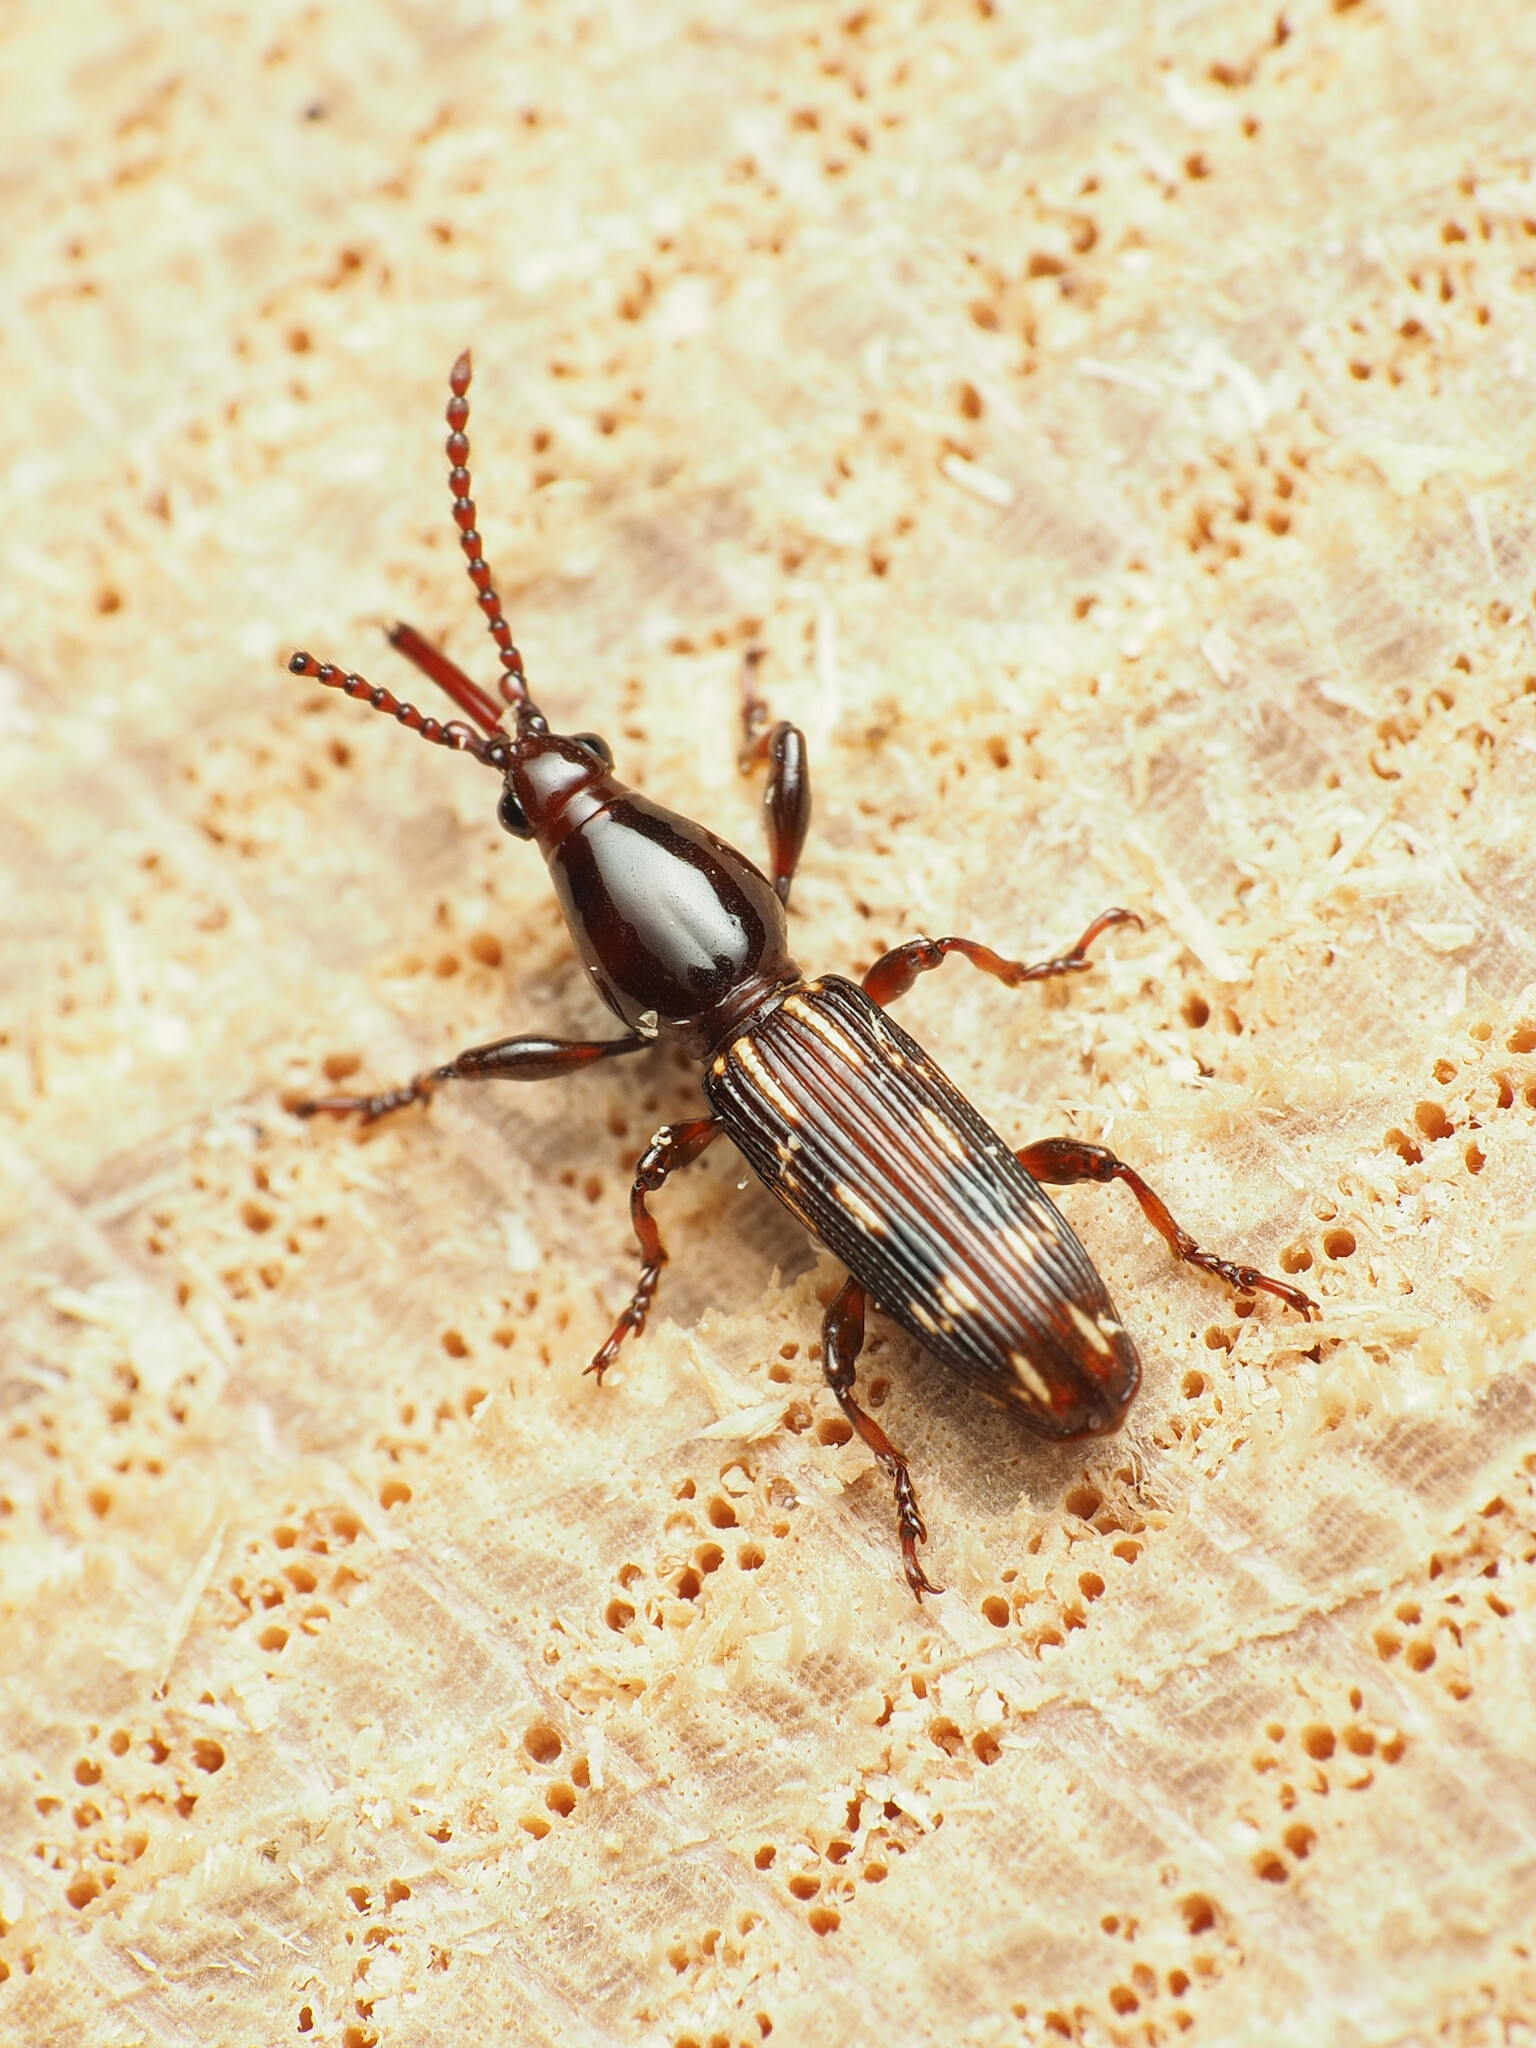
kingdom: Animalia
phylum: Arthropoda
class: Insecta
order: Coleoptera
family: Brentidae
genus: Arrenodes
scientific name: Arrenodes minutus
